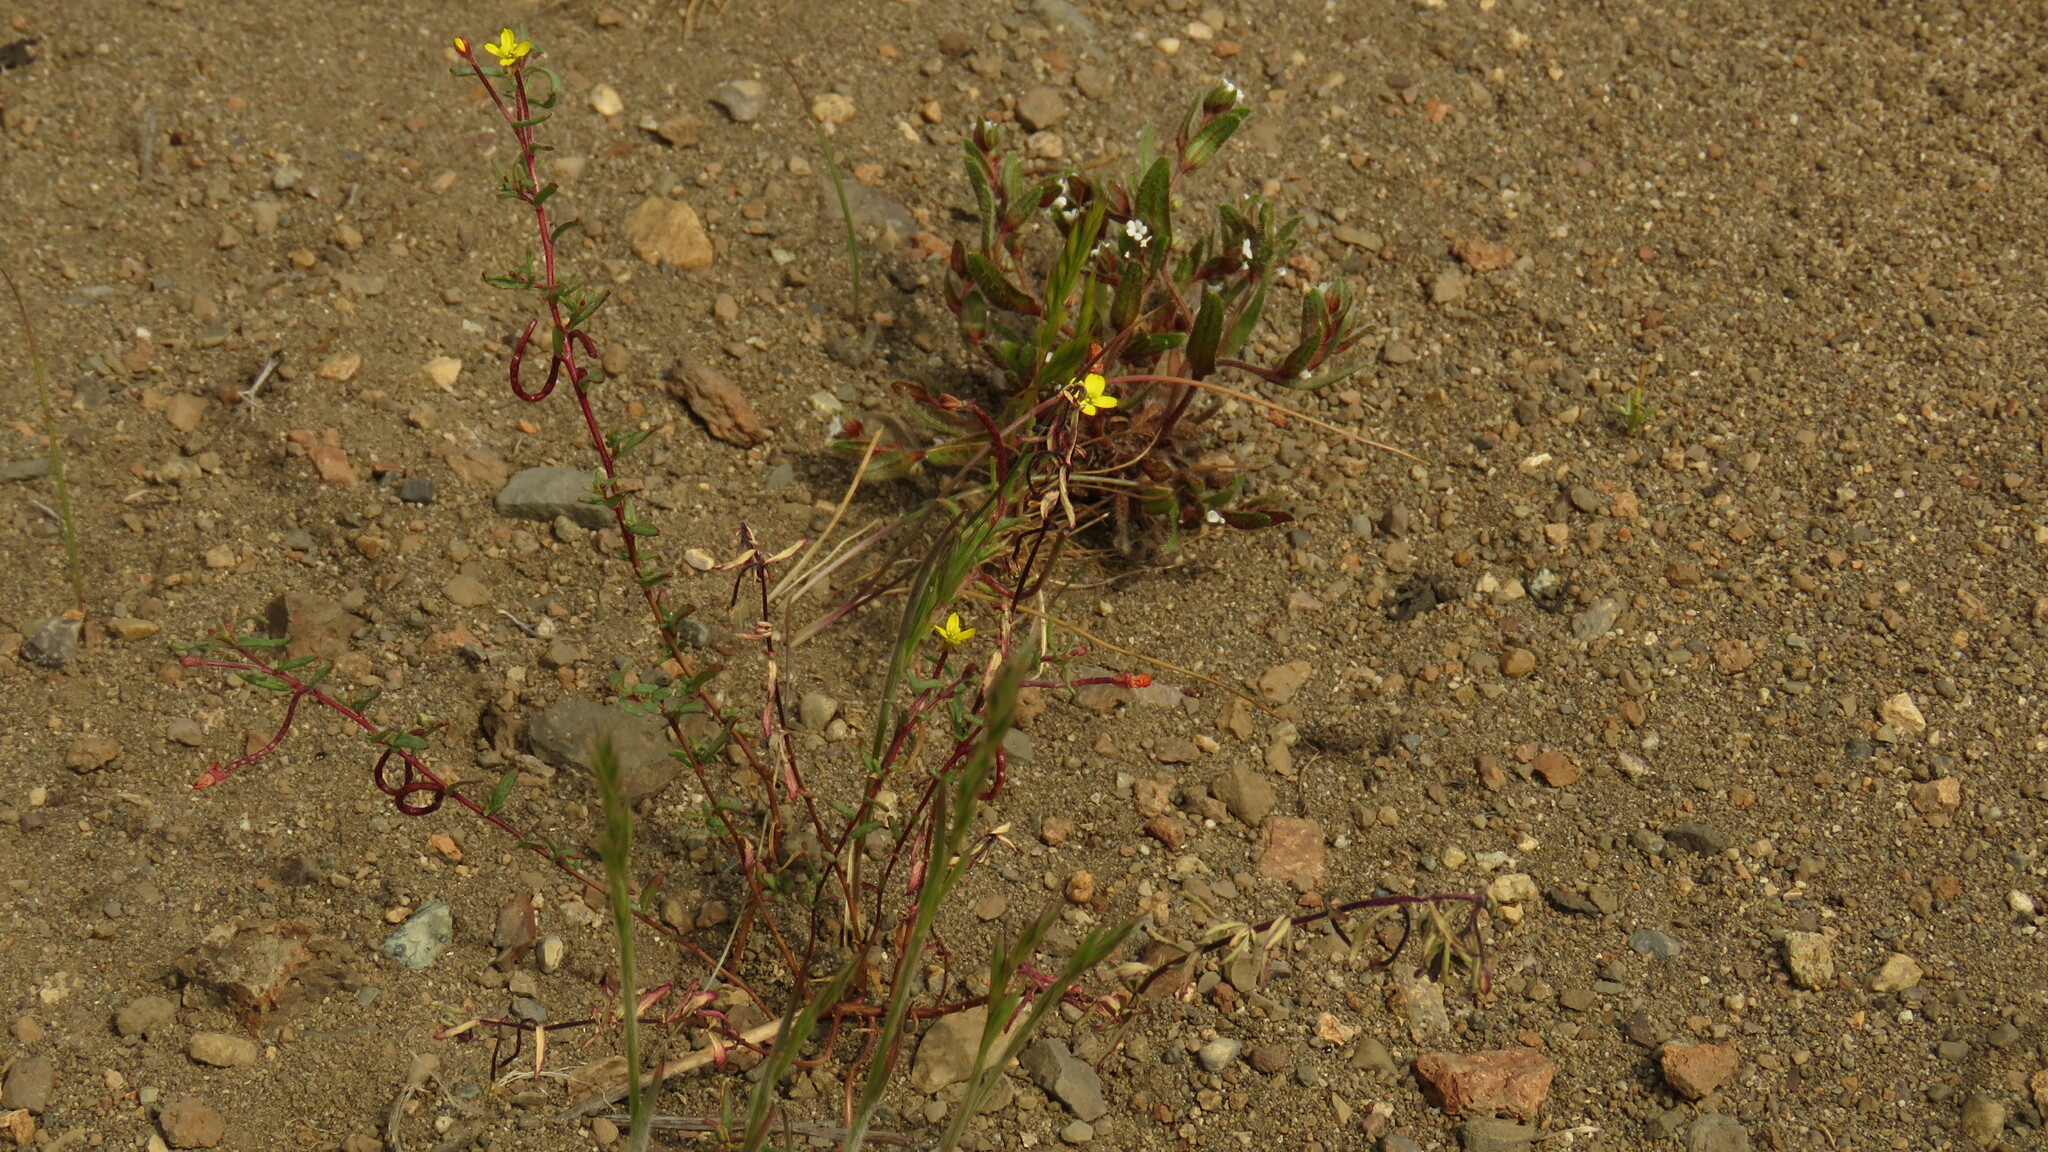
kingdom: Plantae
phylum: Tracheophyta
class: Magnoliopsida
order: Myrtales
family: Onagraceae
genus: Camissonia
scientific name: Camissonia dentata
